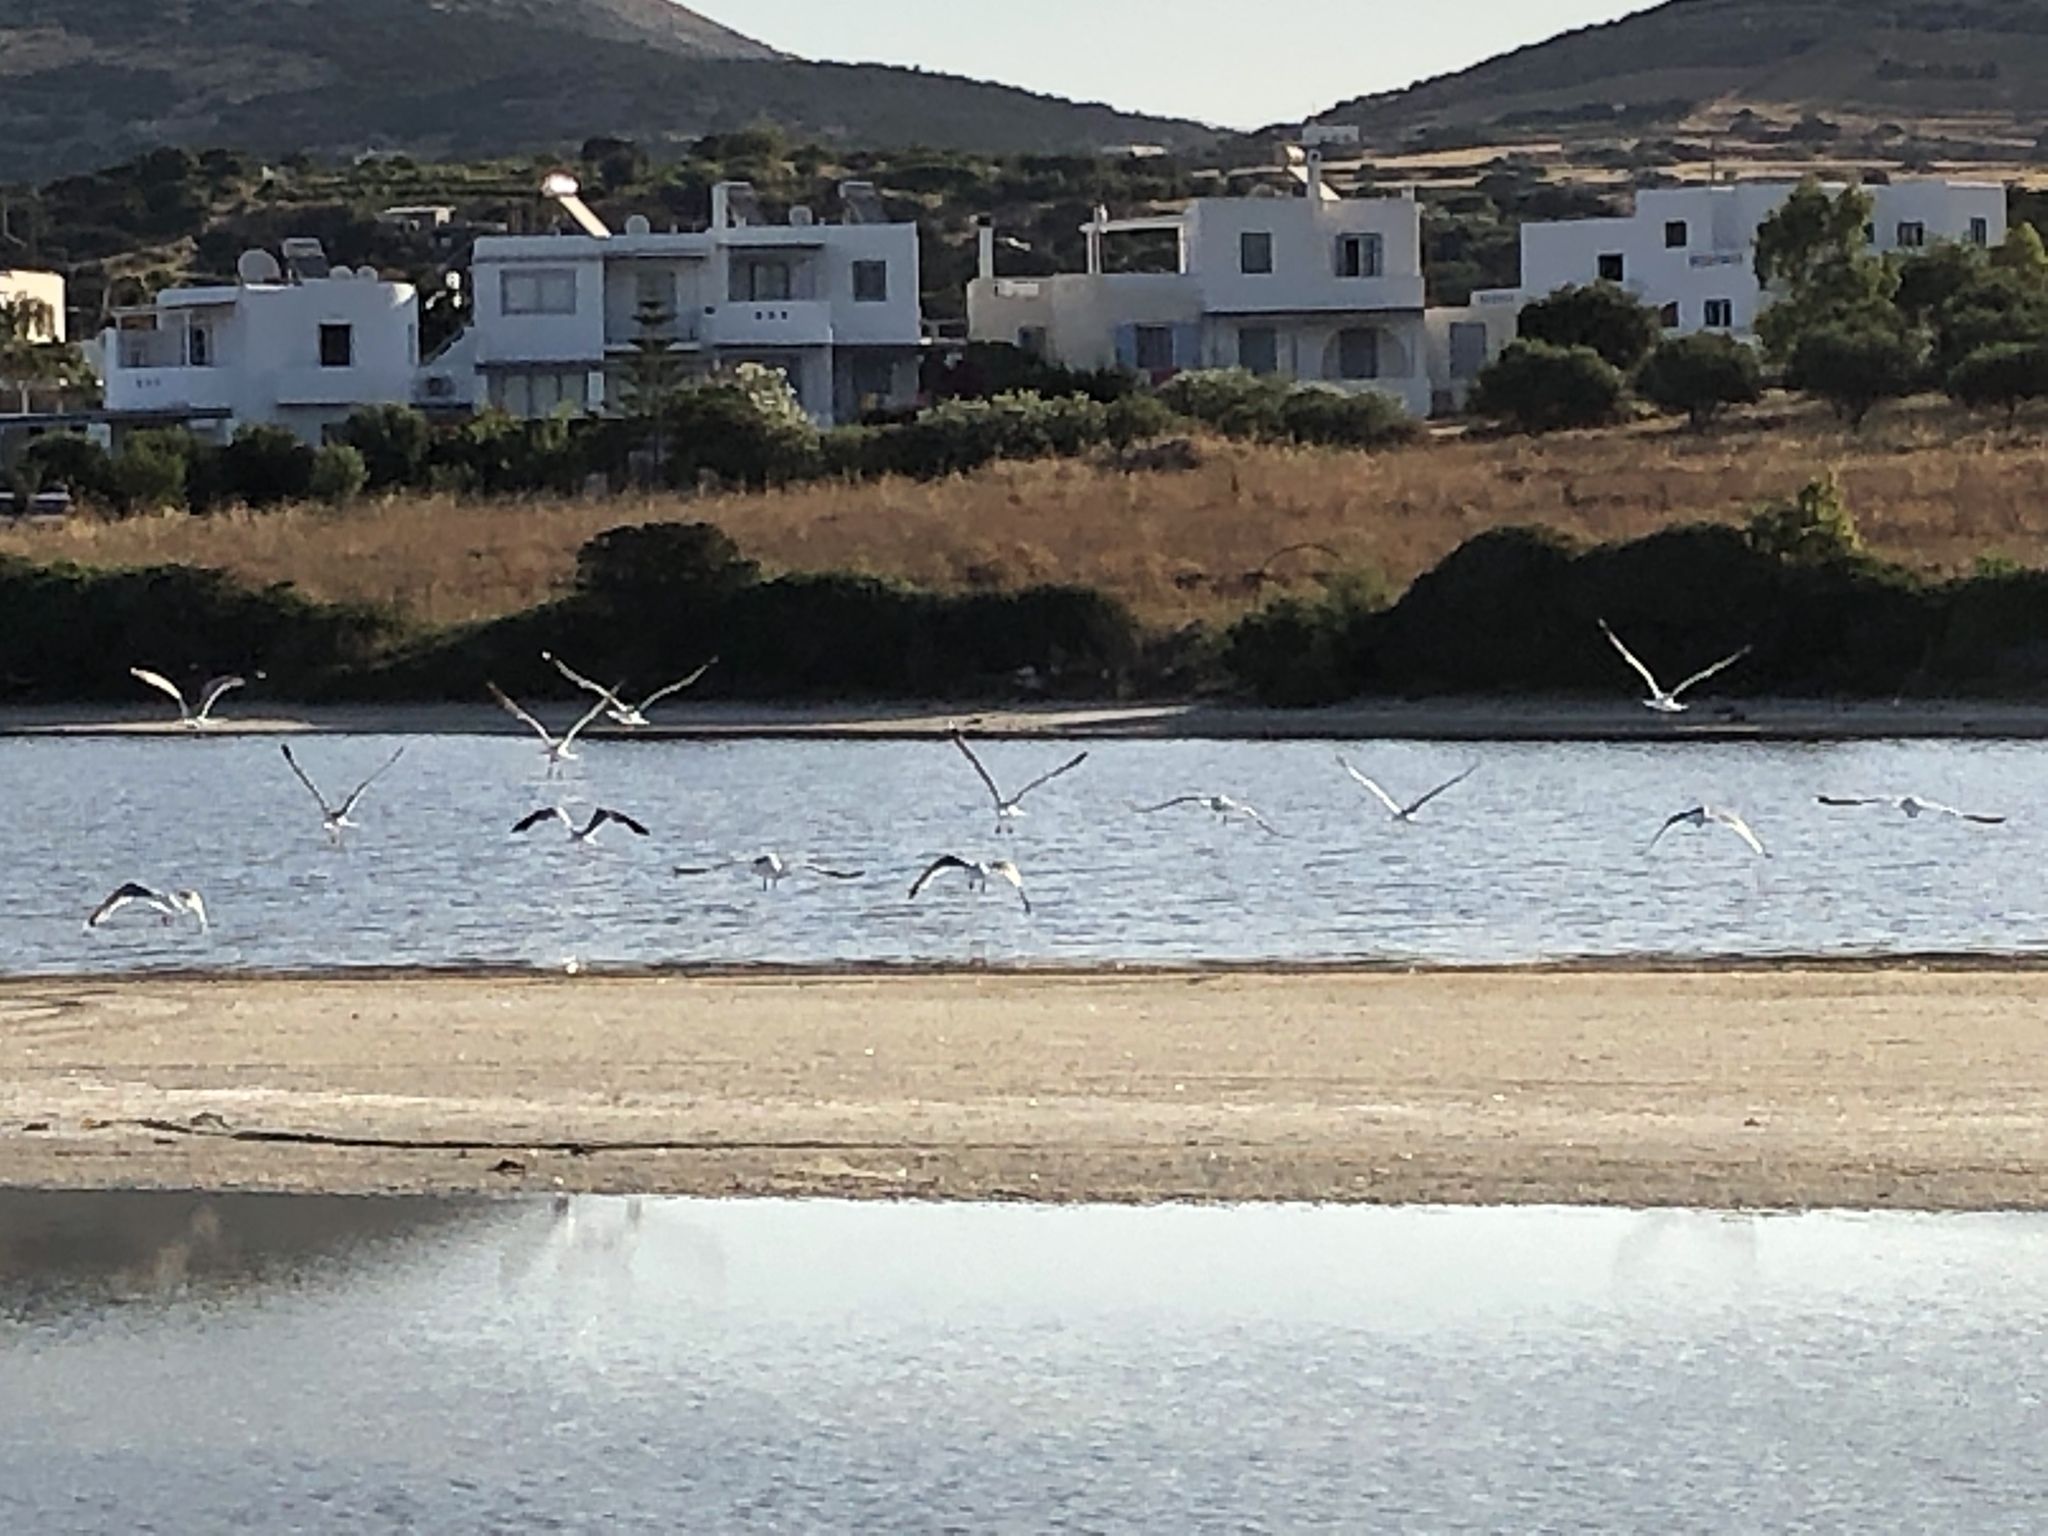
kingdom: Animalia
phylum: Chordata
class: Aves
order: Charadriiformes
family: Laridae
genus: Larus
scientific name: Larus michahellis
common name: Yellow-legged gull
